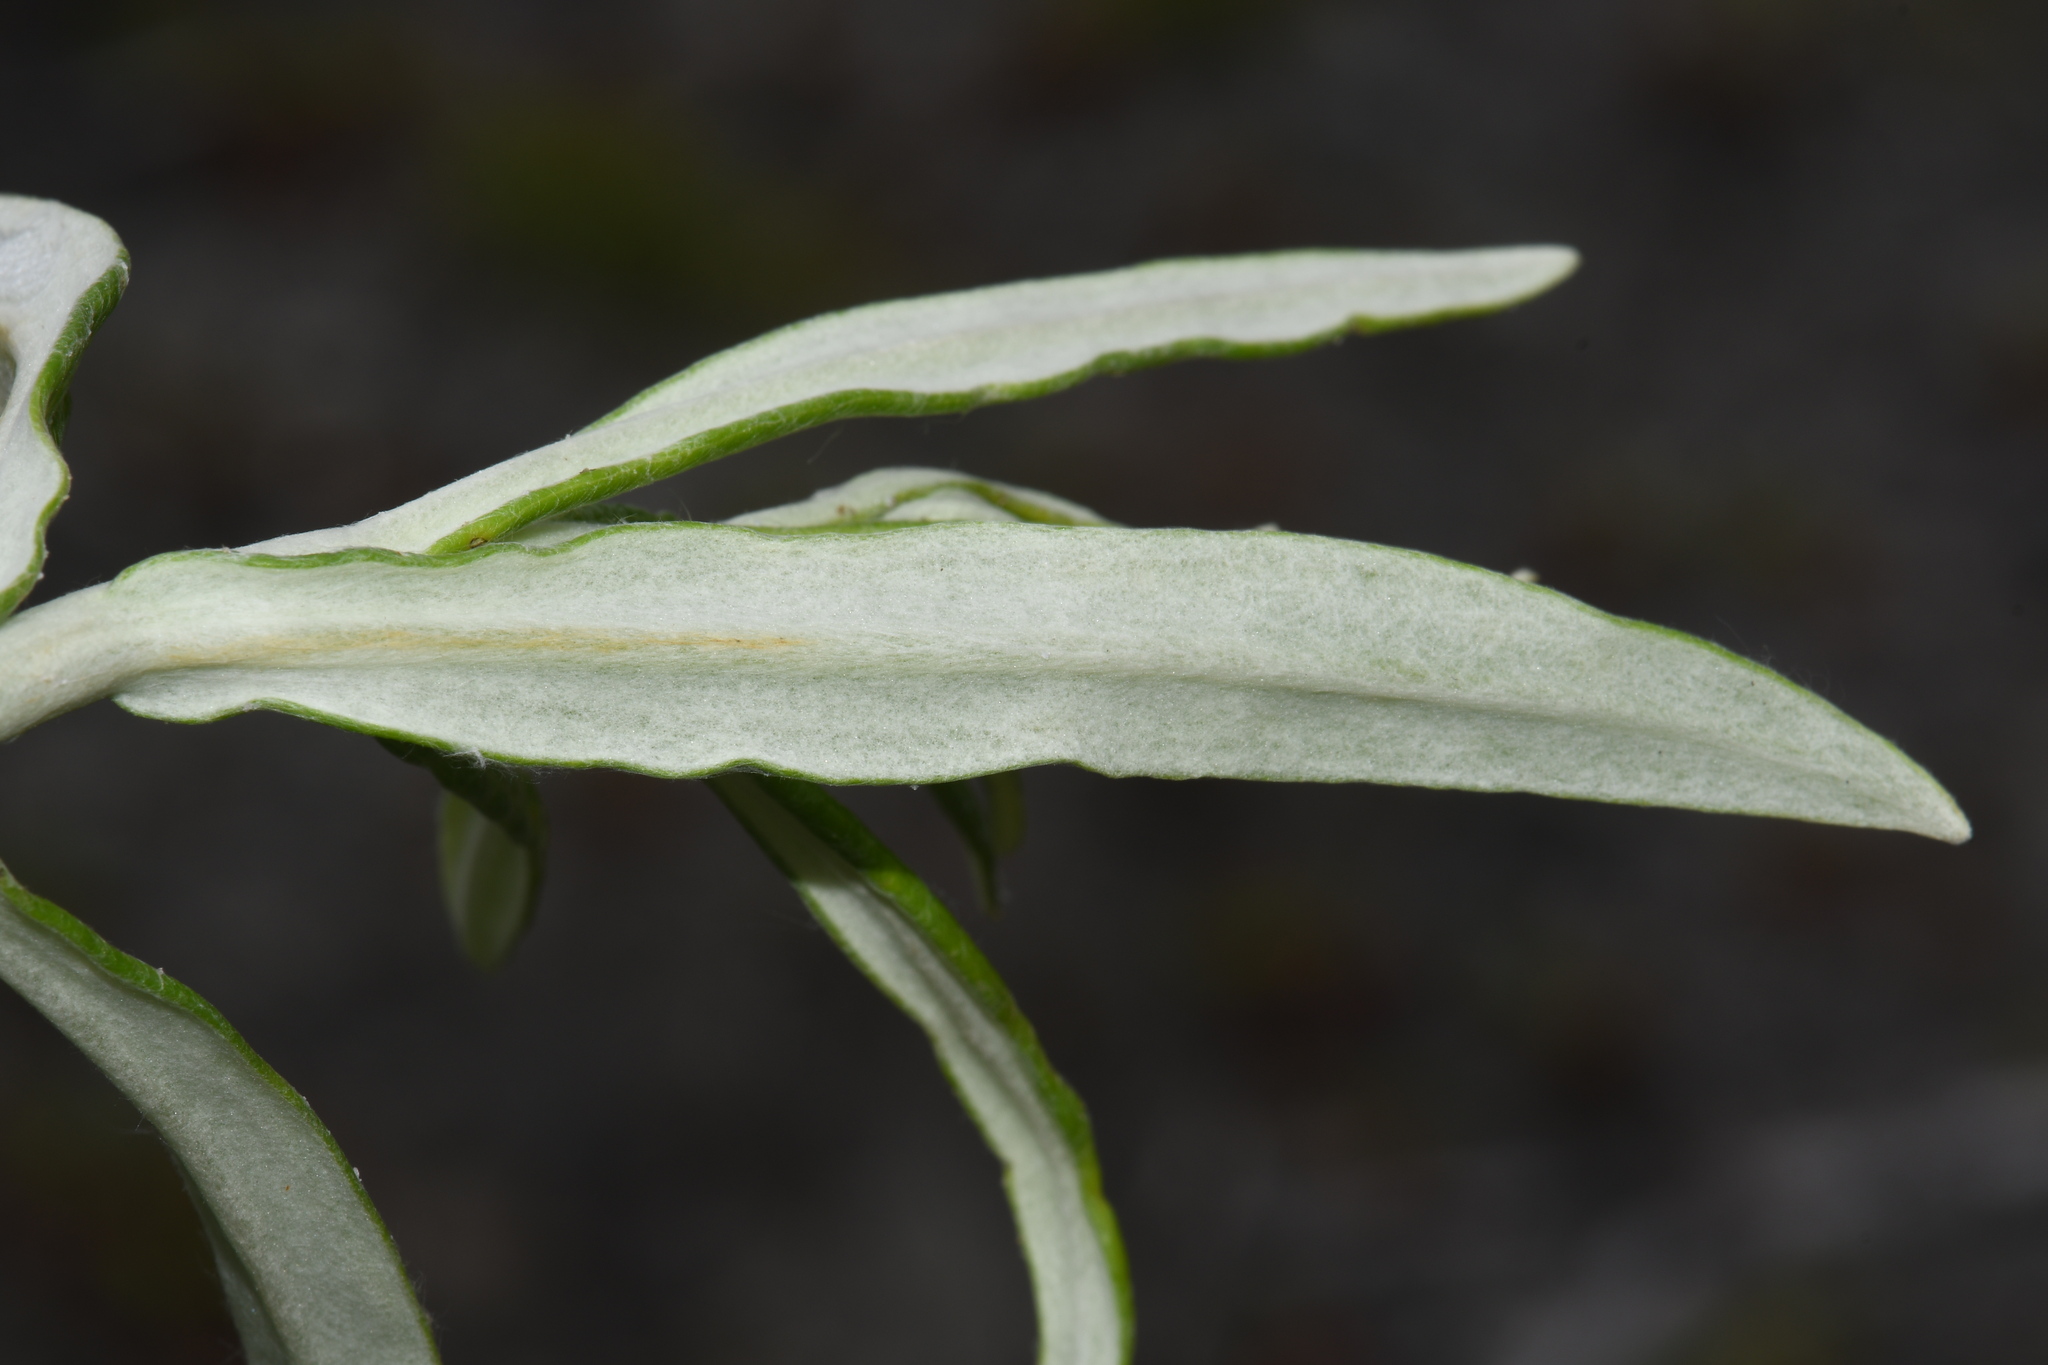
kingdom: Plantae
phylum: Tracheophyta
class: Magnoliopsida
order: Asterales
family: Asteraceae
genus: Anaphalis
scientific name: Anaphalis margaritacea
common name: Pearly everlasting
